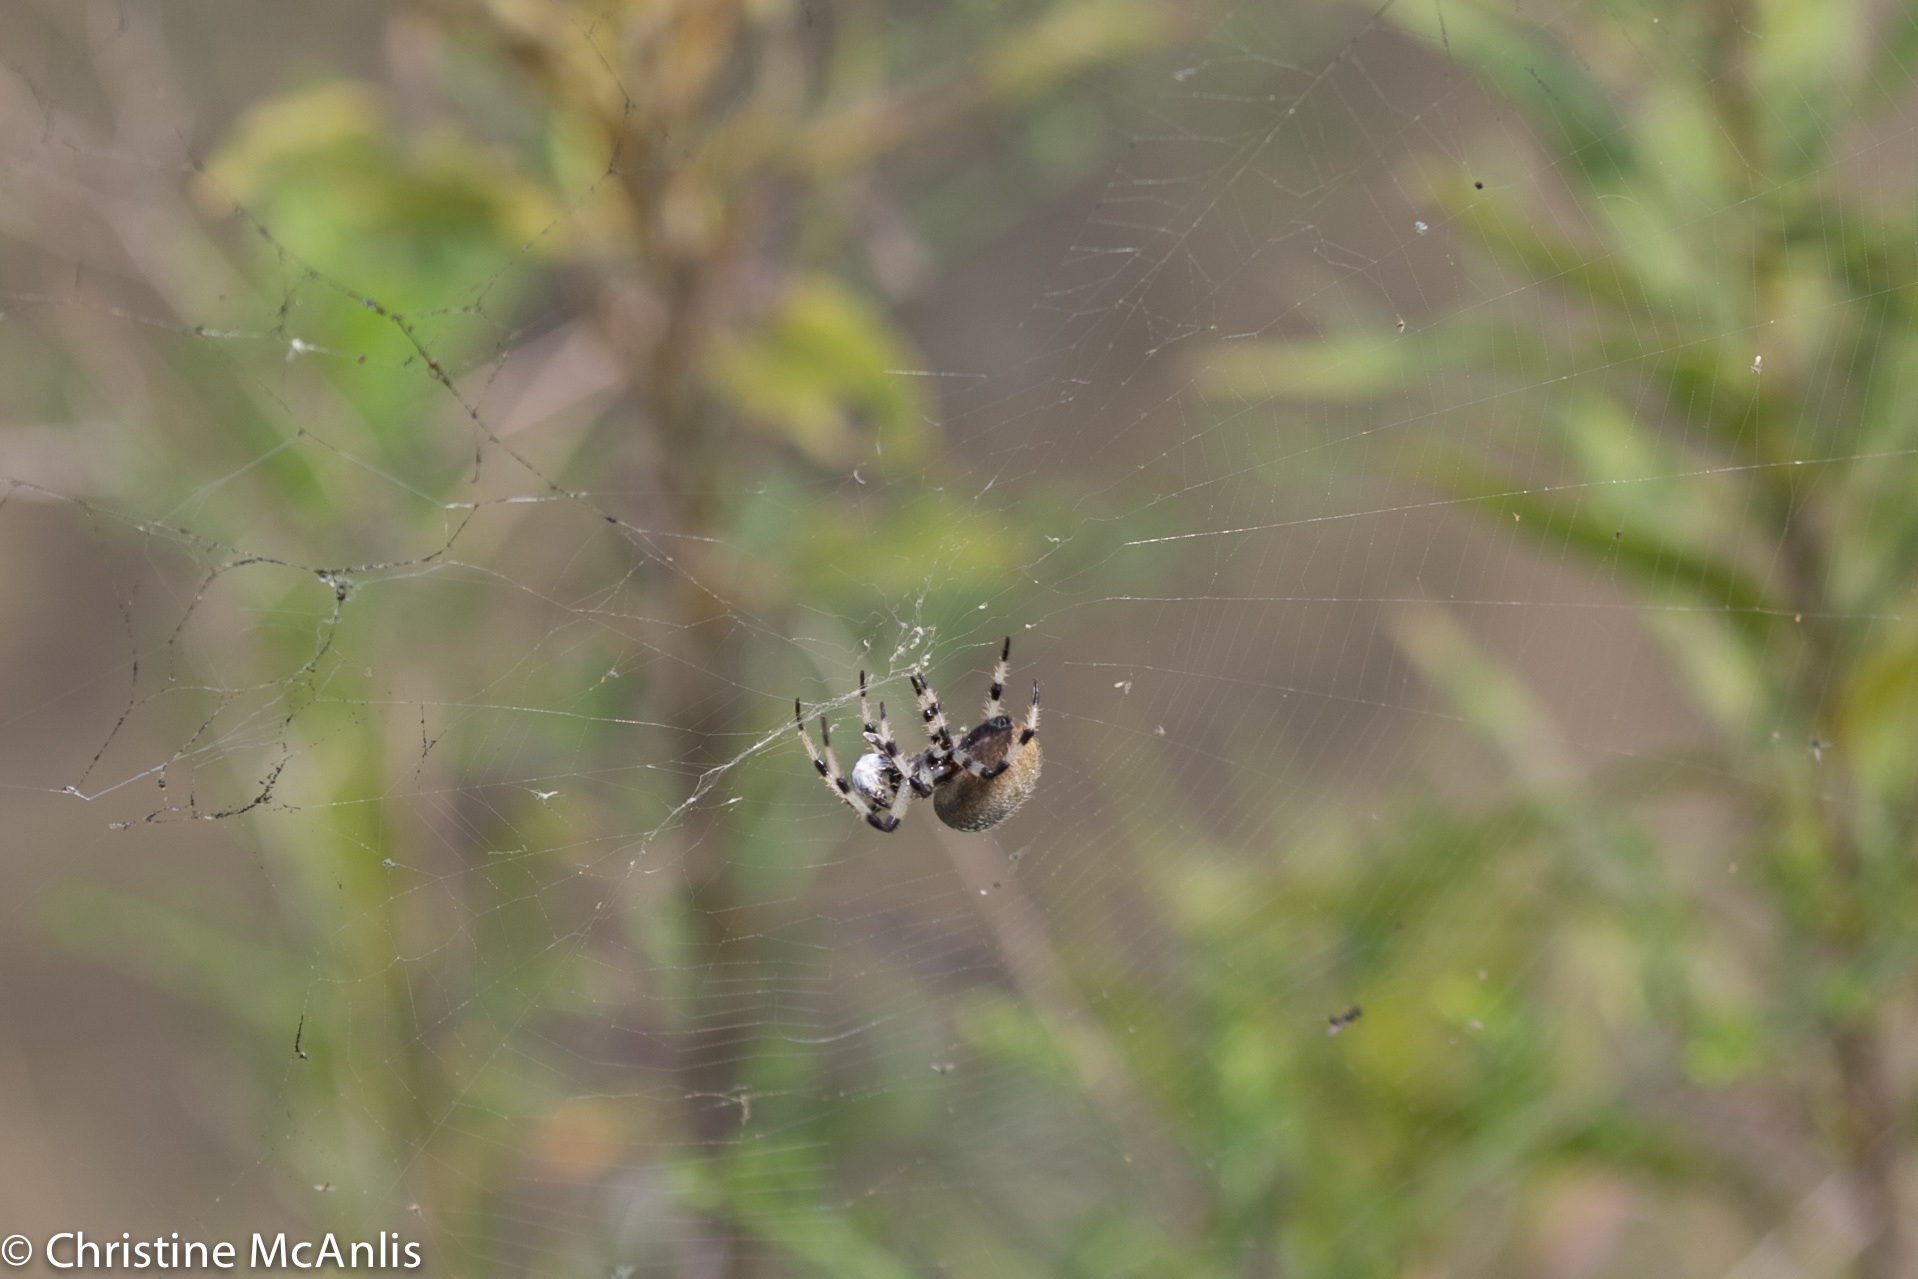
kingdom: Animalia
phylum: Arthropoda
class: Arachnida
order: Araneae
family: Araneidae
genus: Araneus
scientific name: Araneus trifolium
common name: Shamrock orbweaver
